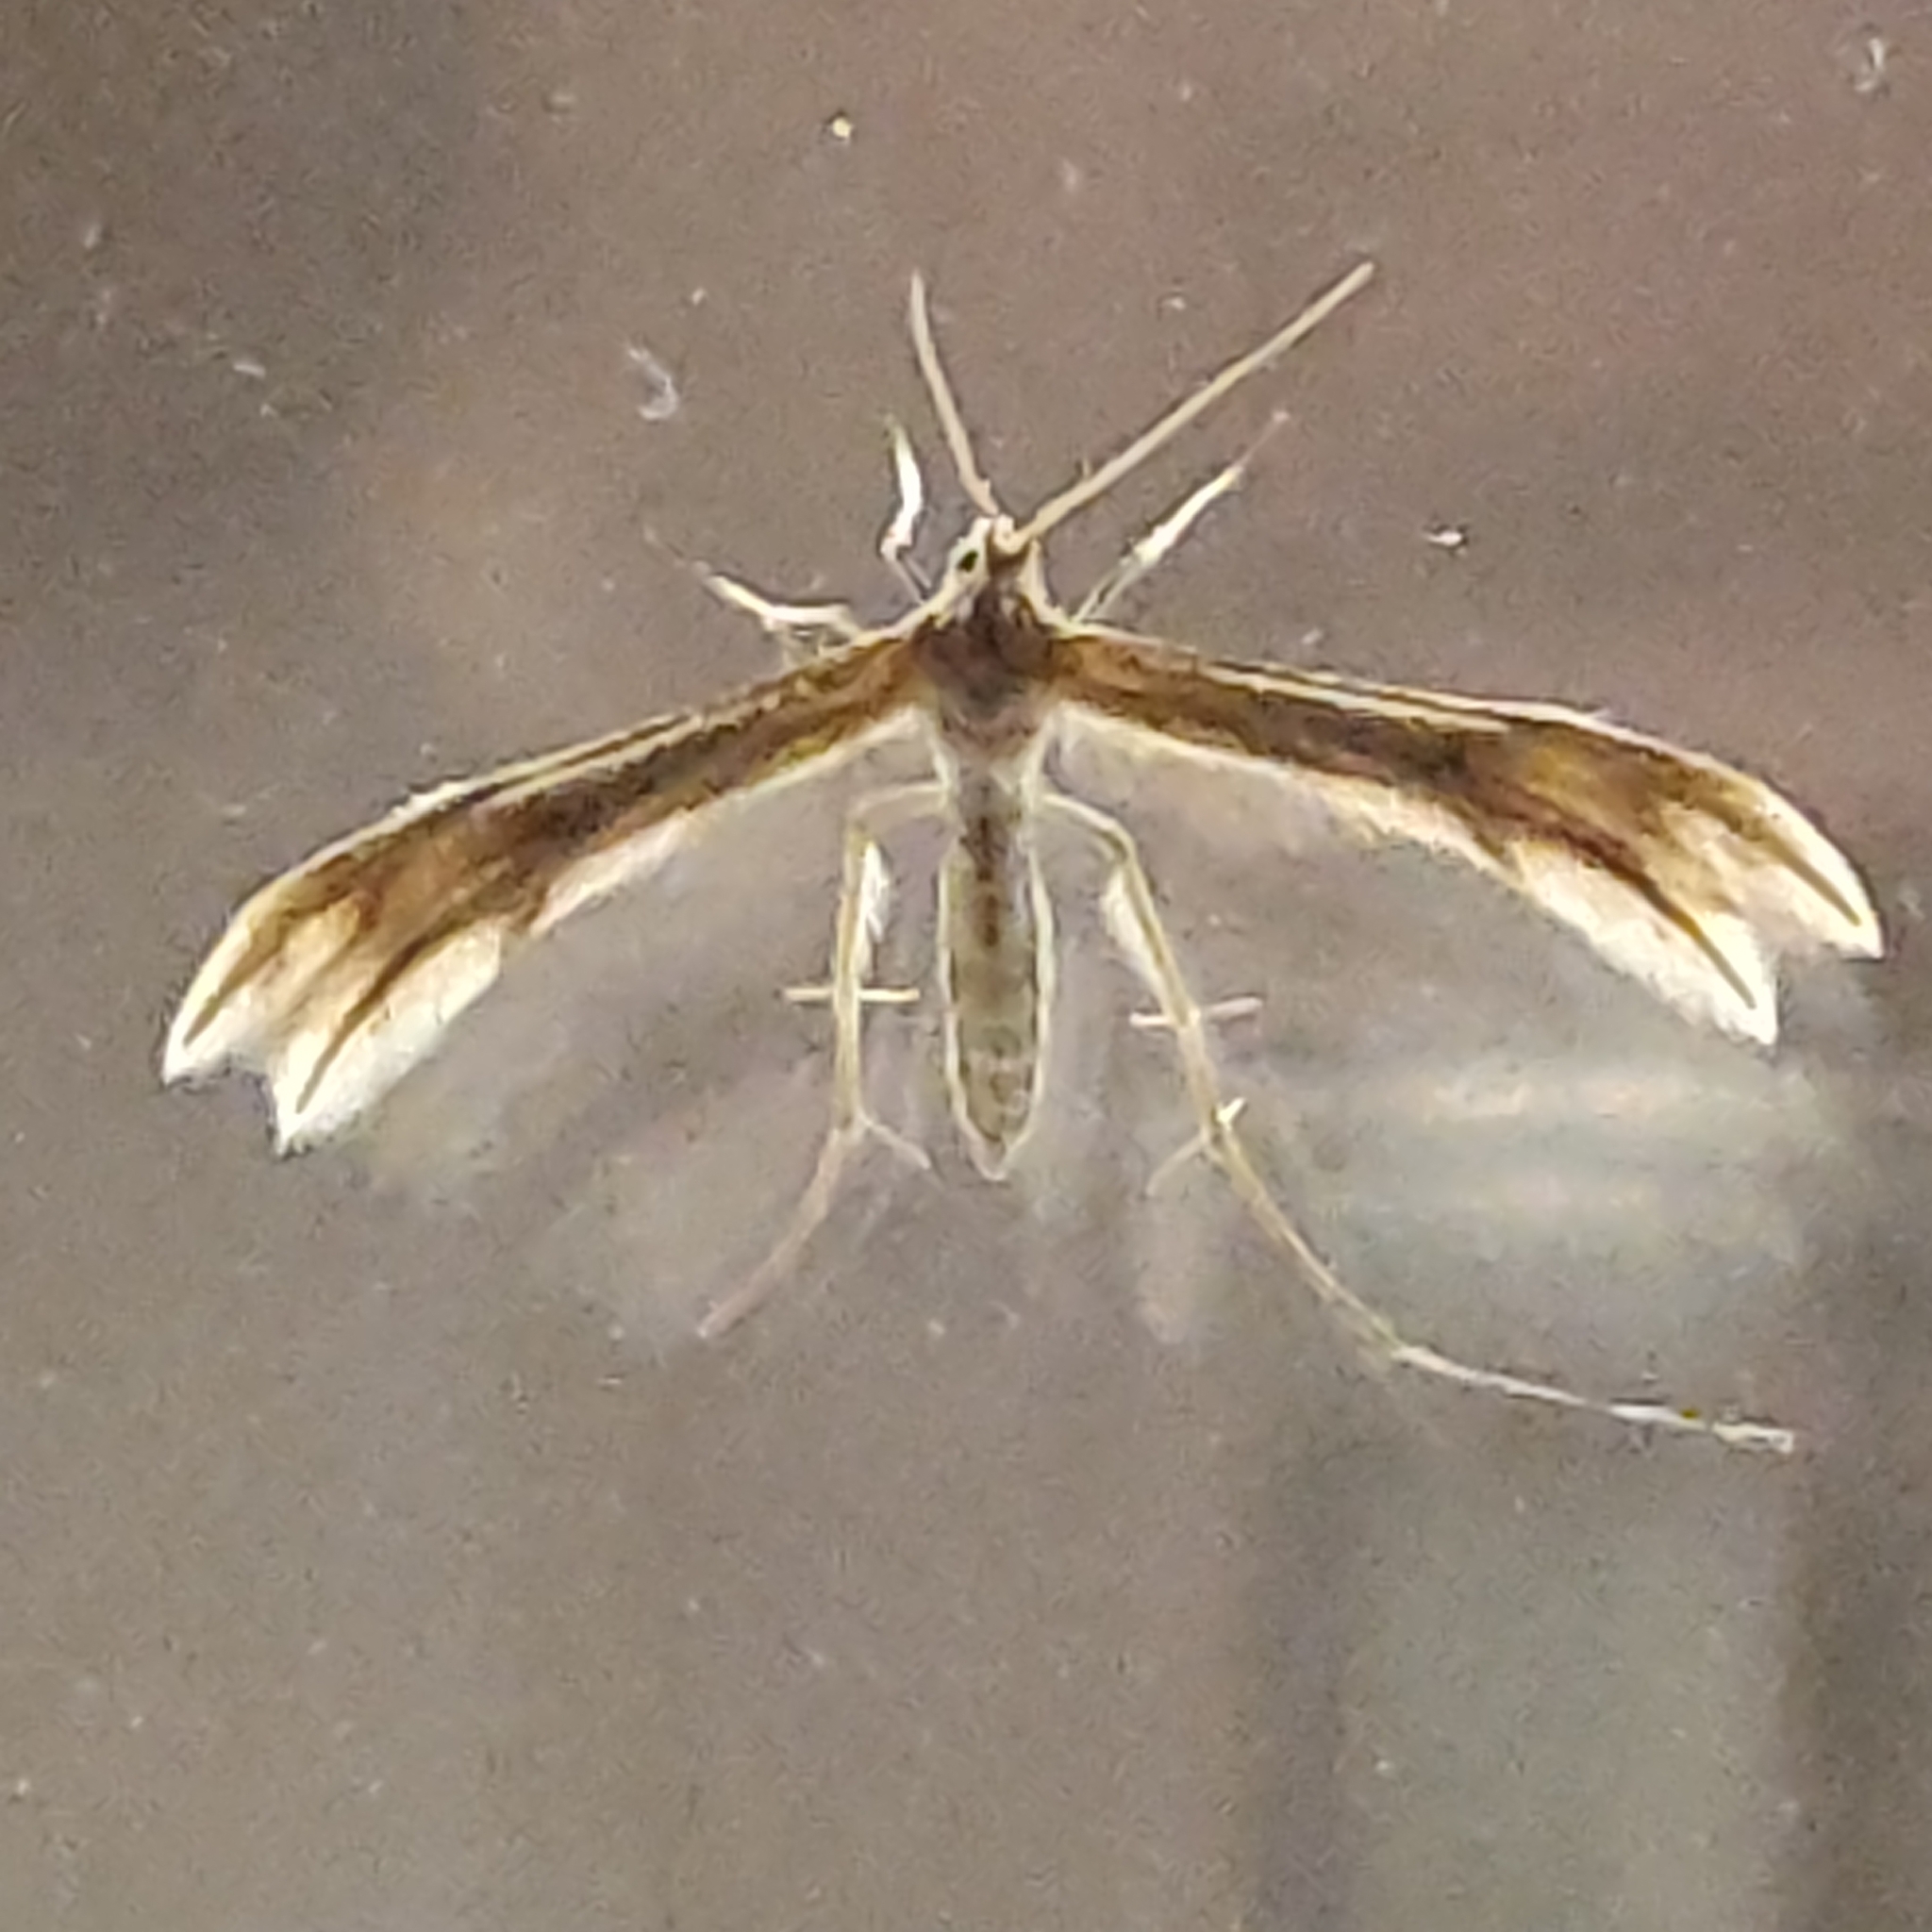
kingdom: Animalia
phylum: Arthropoda
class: Insecta
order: Lepidoptera
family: Pterophoridae
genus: Wheeleria
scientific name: Wheeleria spilodactylus
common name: Horehound plume
